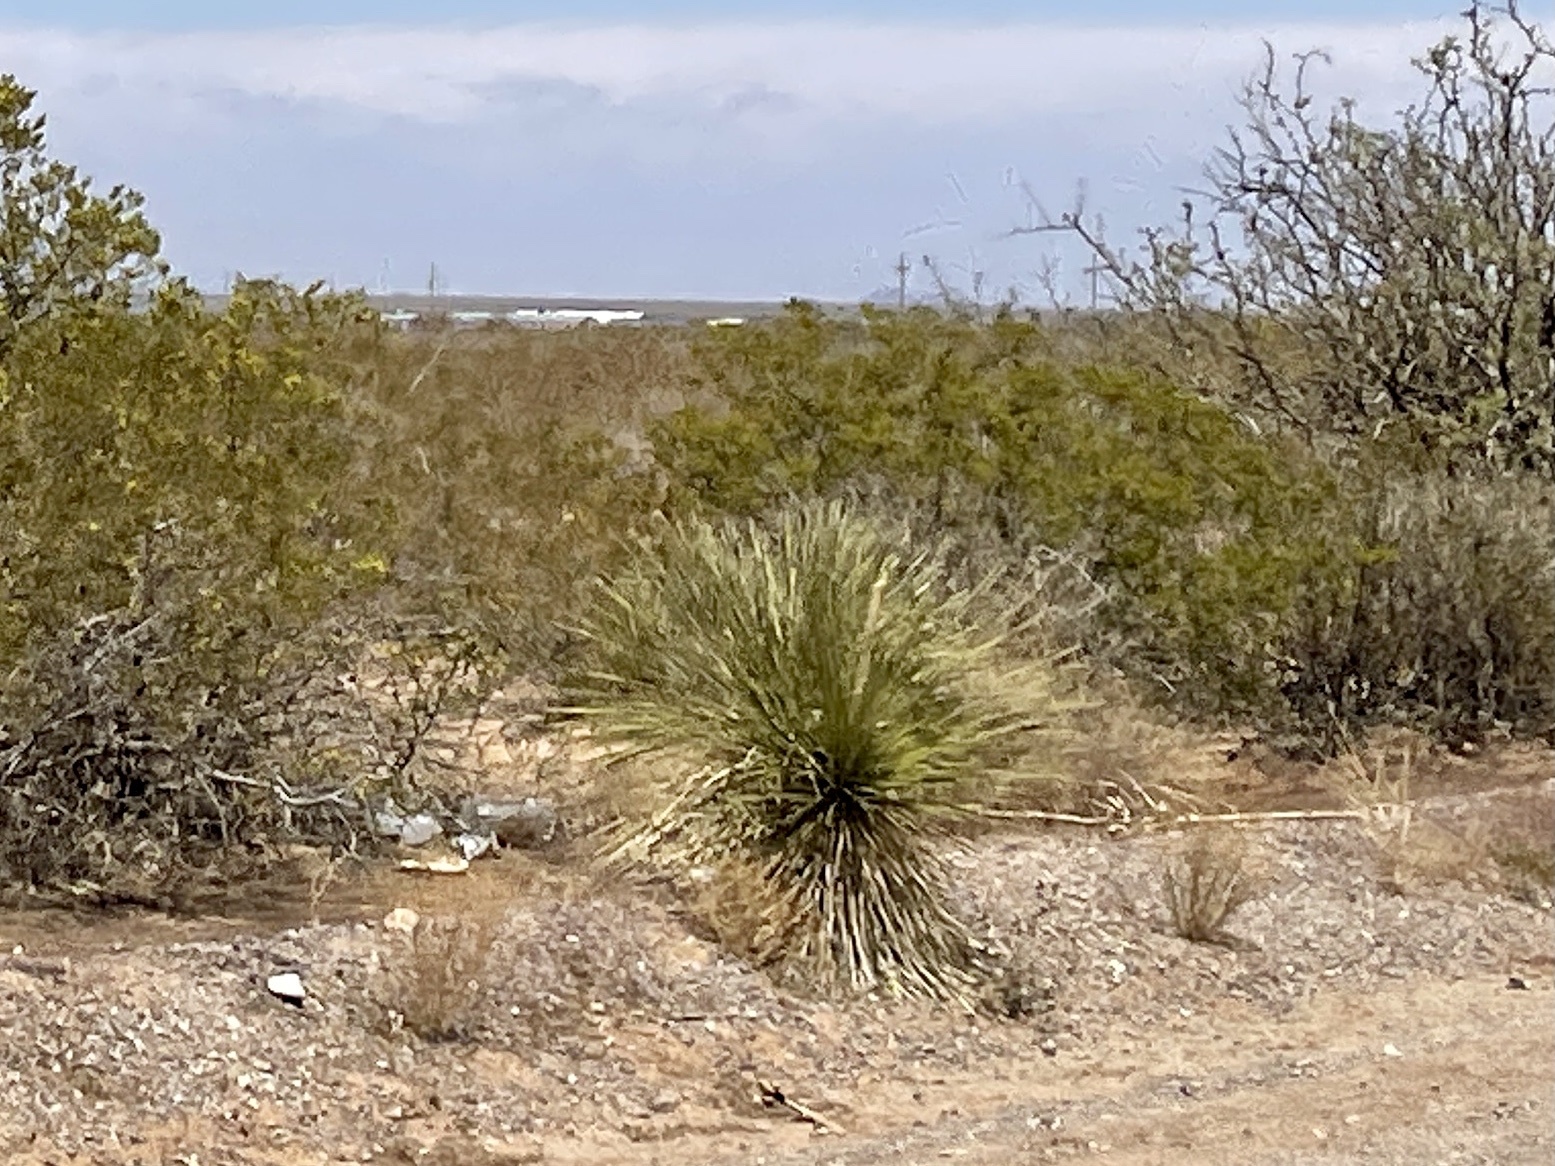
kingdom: Plantae
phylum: Tracheophyta
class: Liliopsida
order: Asparagales
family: Asparagaceae
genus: Yucca
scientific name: Yucca elata
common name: Palmella
